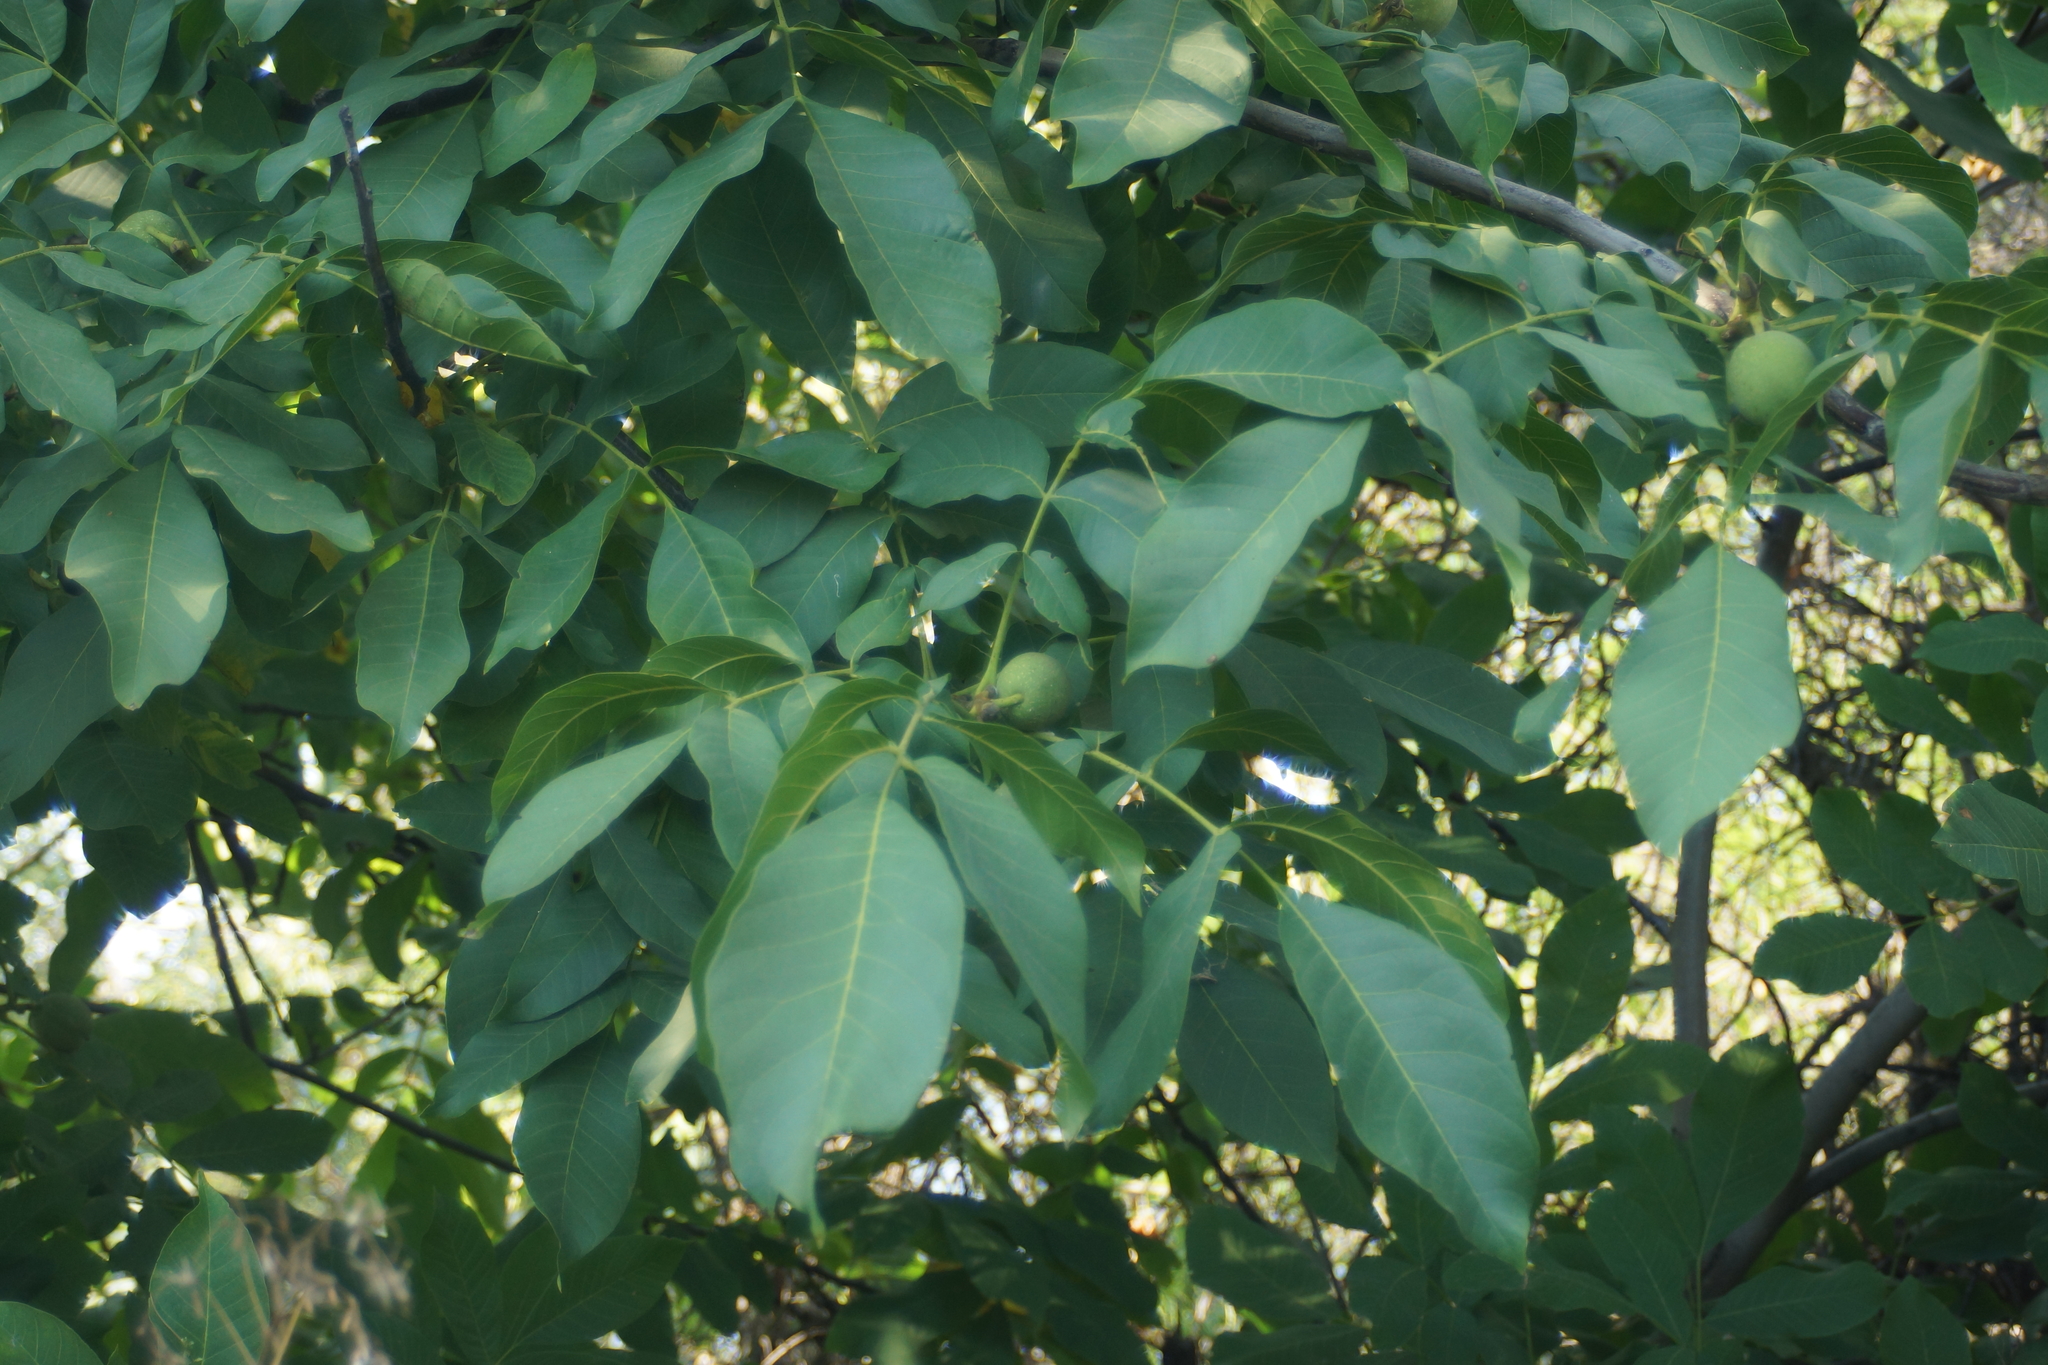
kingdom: Plantae
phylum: Tracheophyta
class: Magnoliopsida
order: Fagales
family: Juglandaceae
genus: Juglans
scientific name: Juglans regia
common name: Walnut
